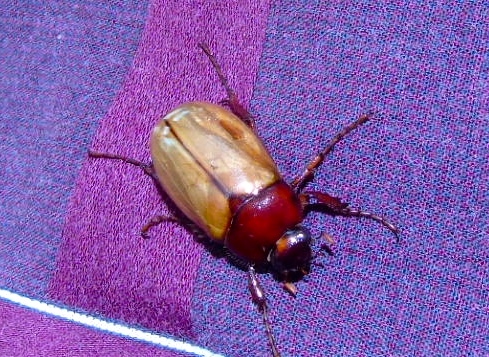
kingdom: Animalia
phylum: Arthropoda
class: Insecta
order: Coleoptera
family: Scarabaeidae
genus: Cyclocephala
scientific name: Cyclocephala melanocephala
